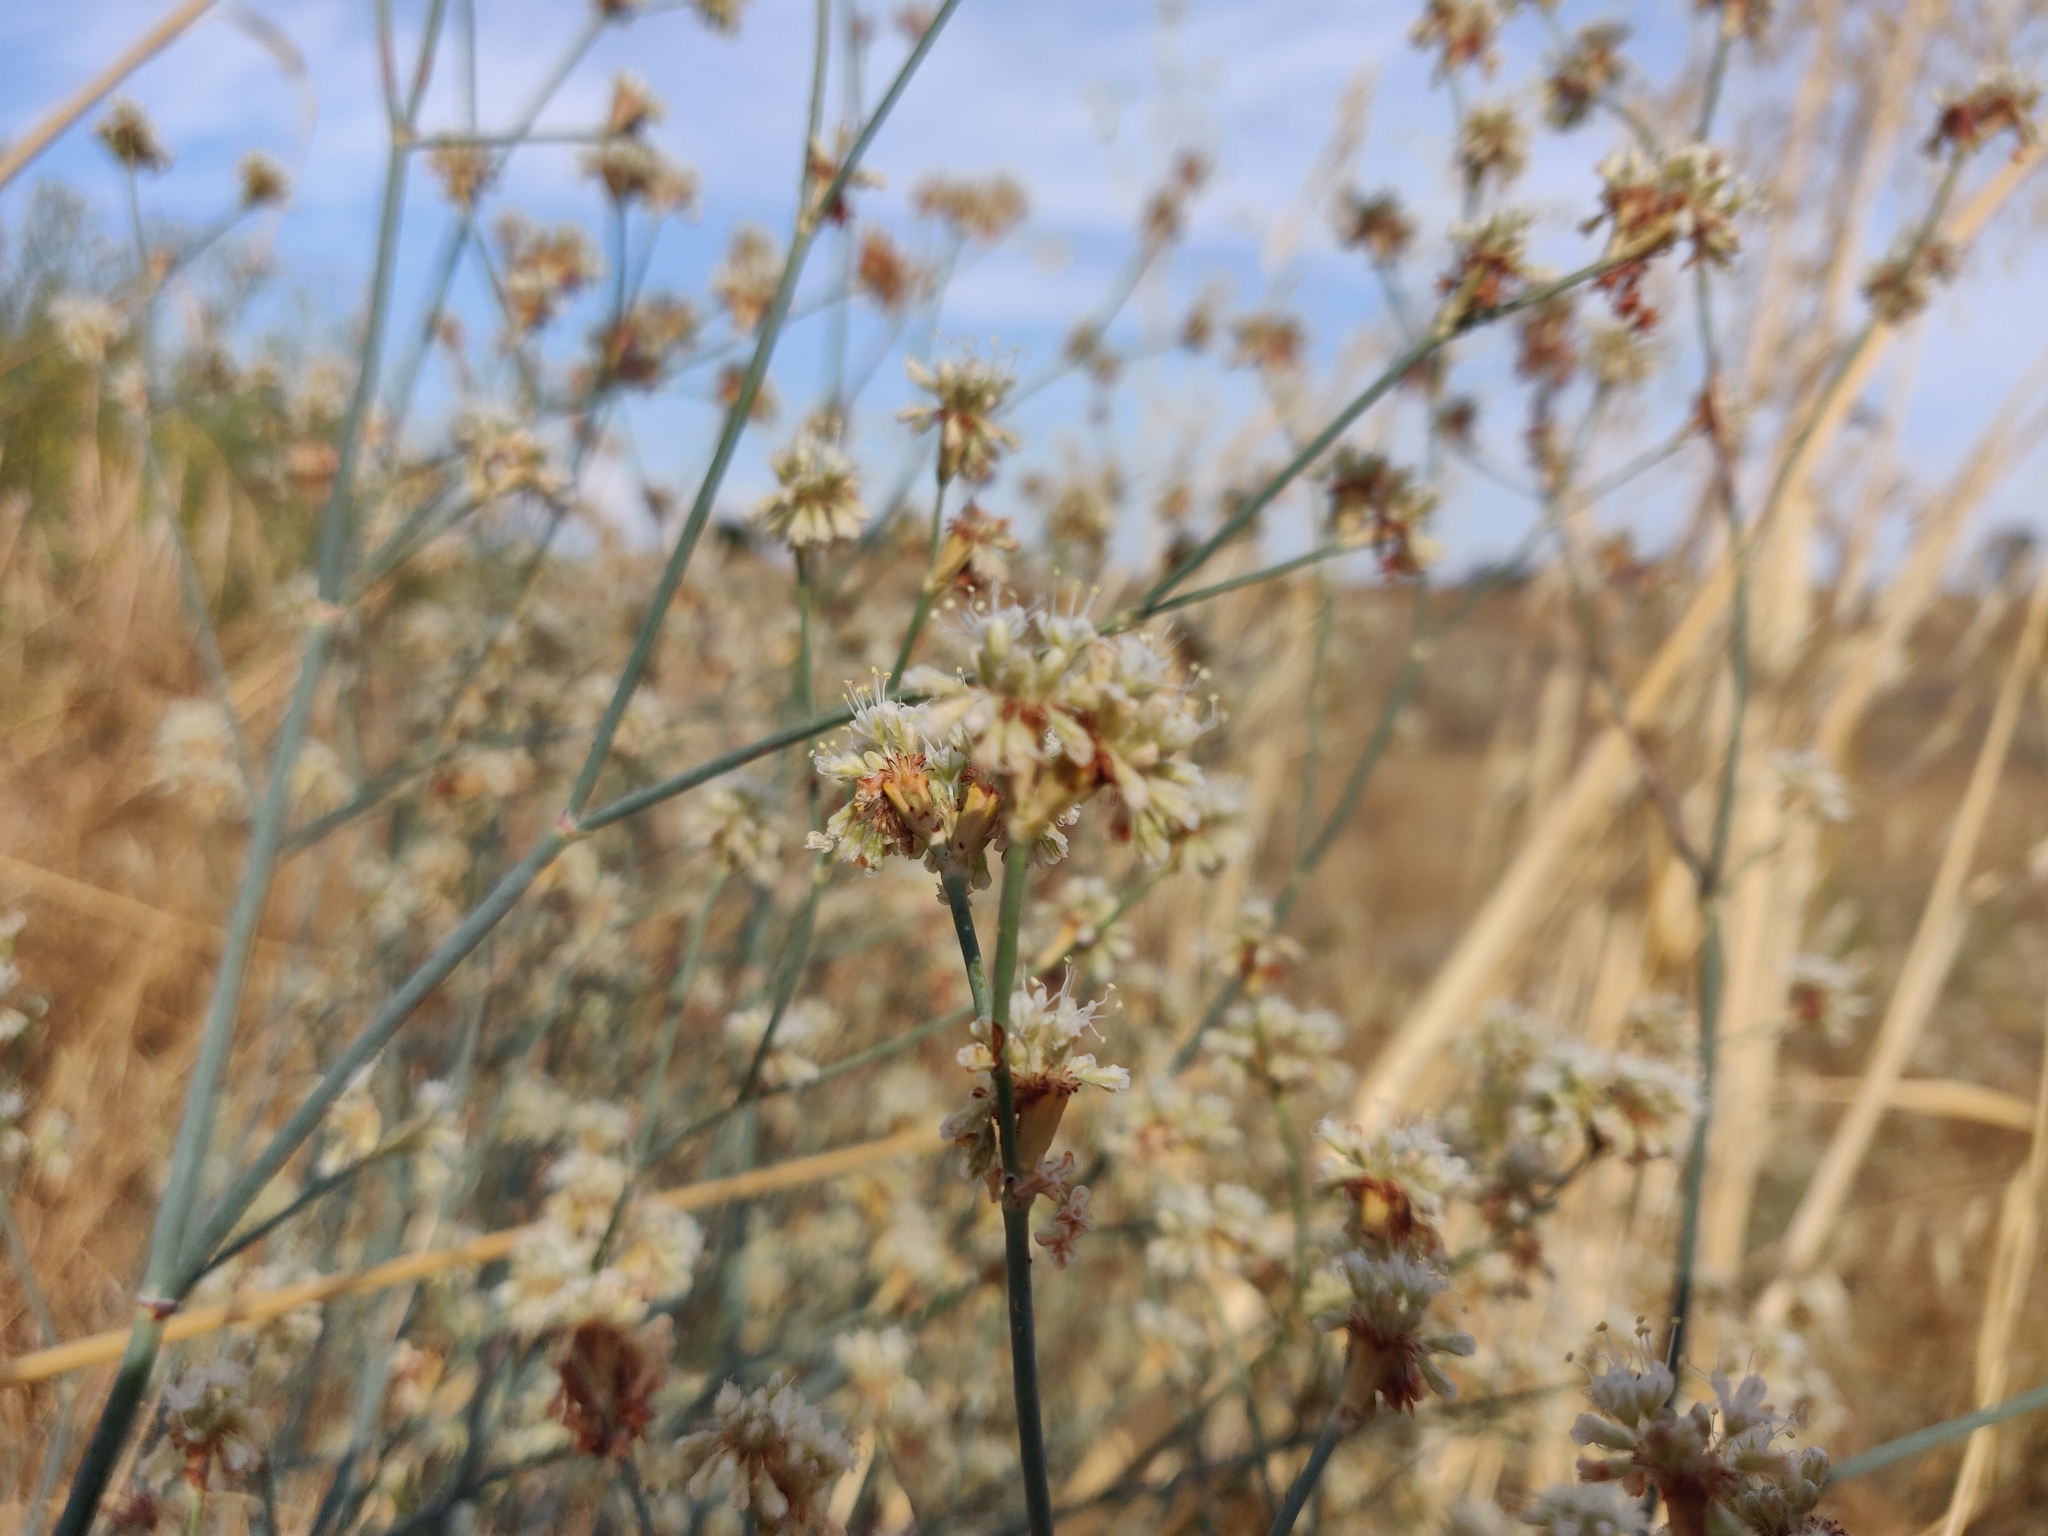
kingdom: Plantae
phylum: Tracheophyta
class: Magnoliopsida
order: Caryophyllales
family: Polygonaceae
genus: Eriogonum
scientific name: Eriogonum nudum
